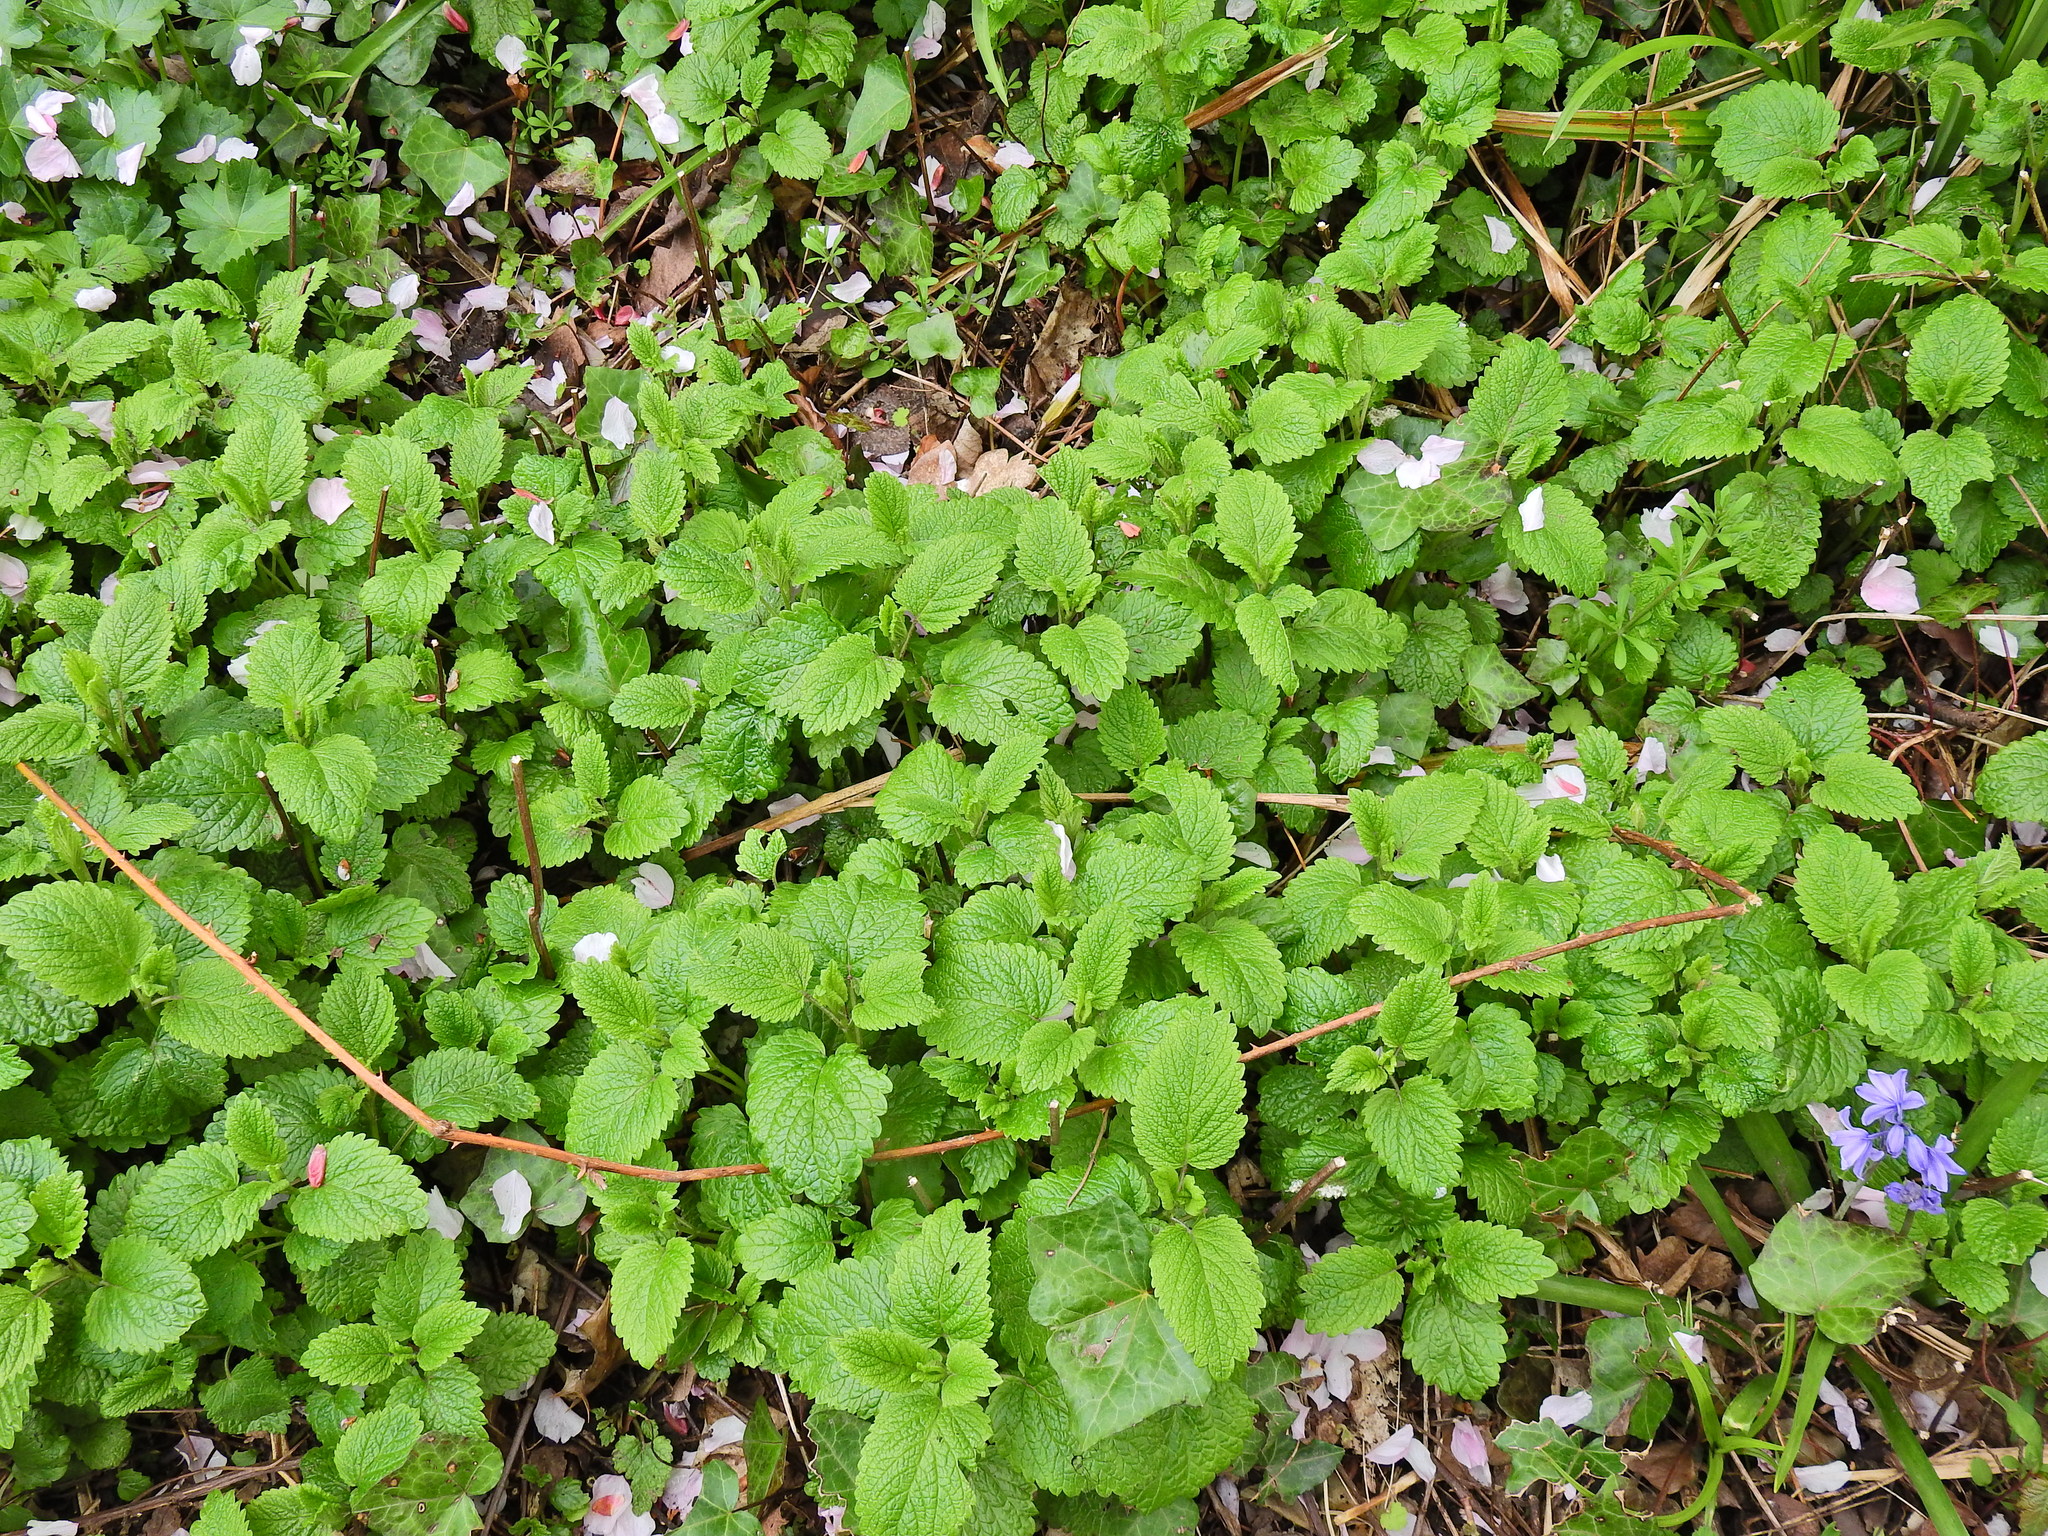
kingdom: Plantae
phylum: Tracheophyta
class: Magnoliopsida
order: Lamiales
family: Lamiaceae
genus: Melissa
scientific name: Melissa officinalis
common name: Balm
